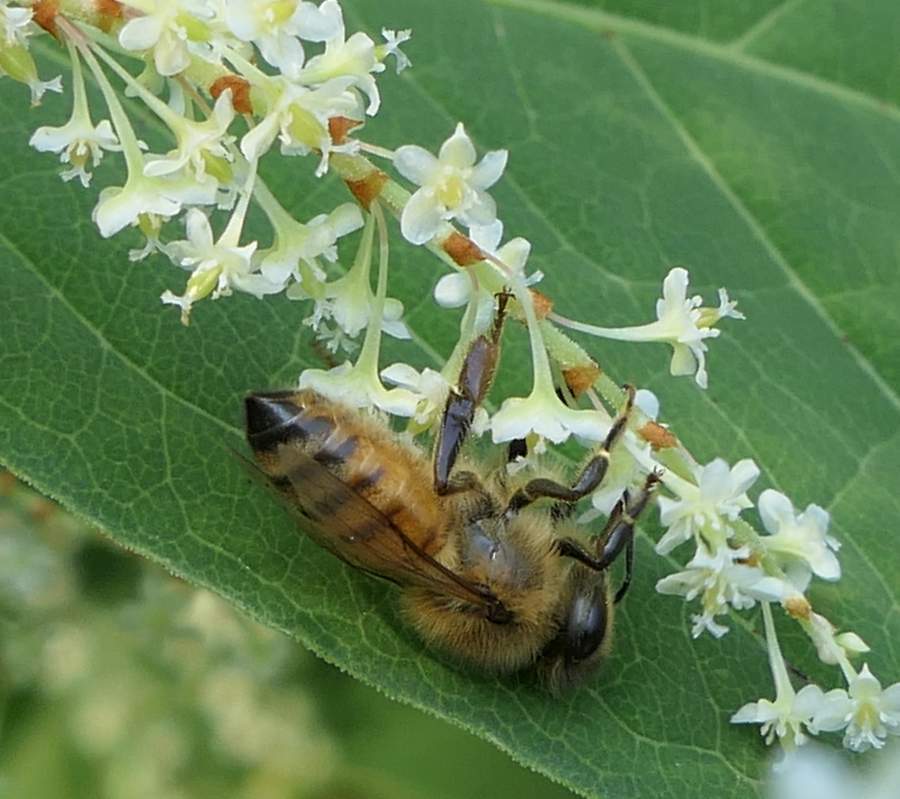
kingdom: Animalia
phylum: Arthropoda
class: Insecta
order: Hymenoptera
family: Apidae
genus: Apis
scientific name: Apis mellifera
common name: Honey bee
